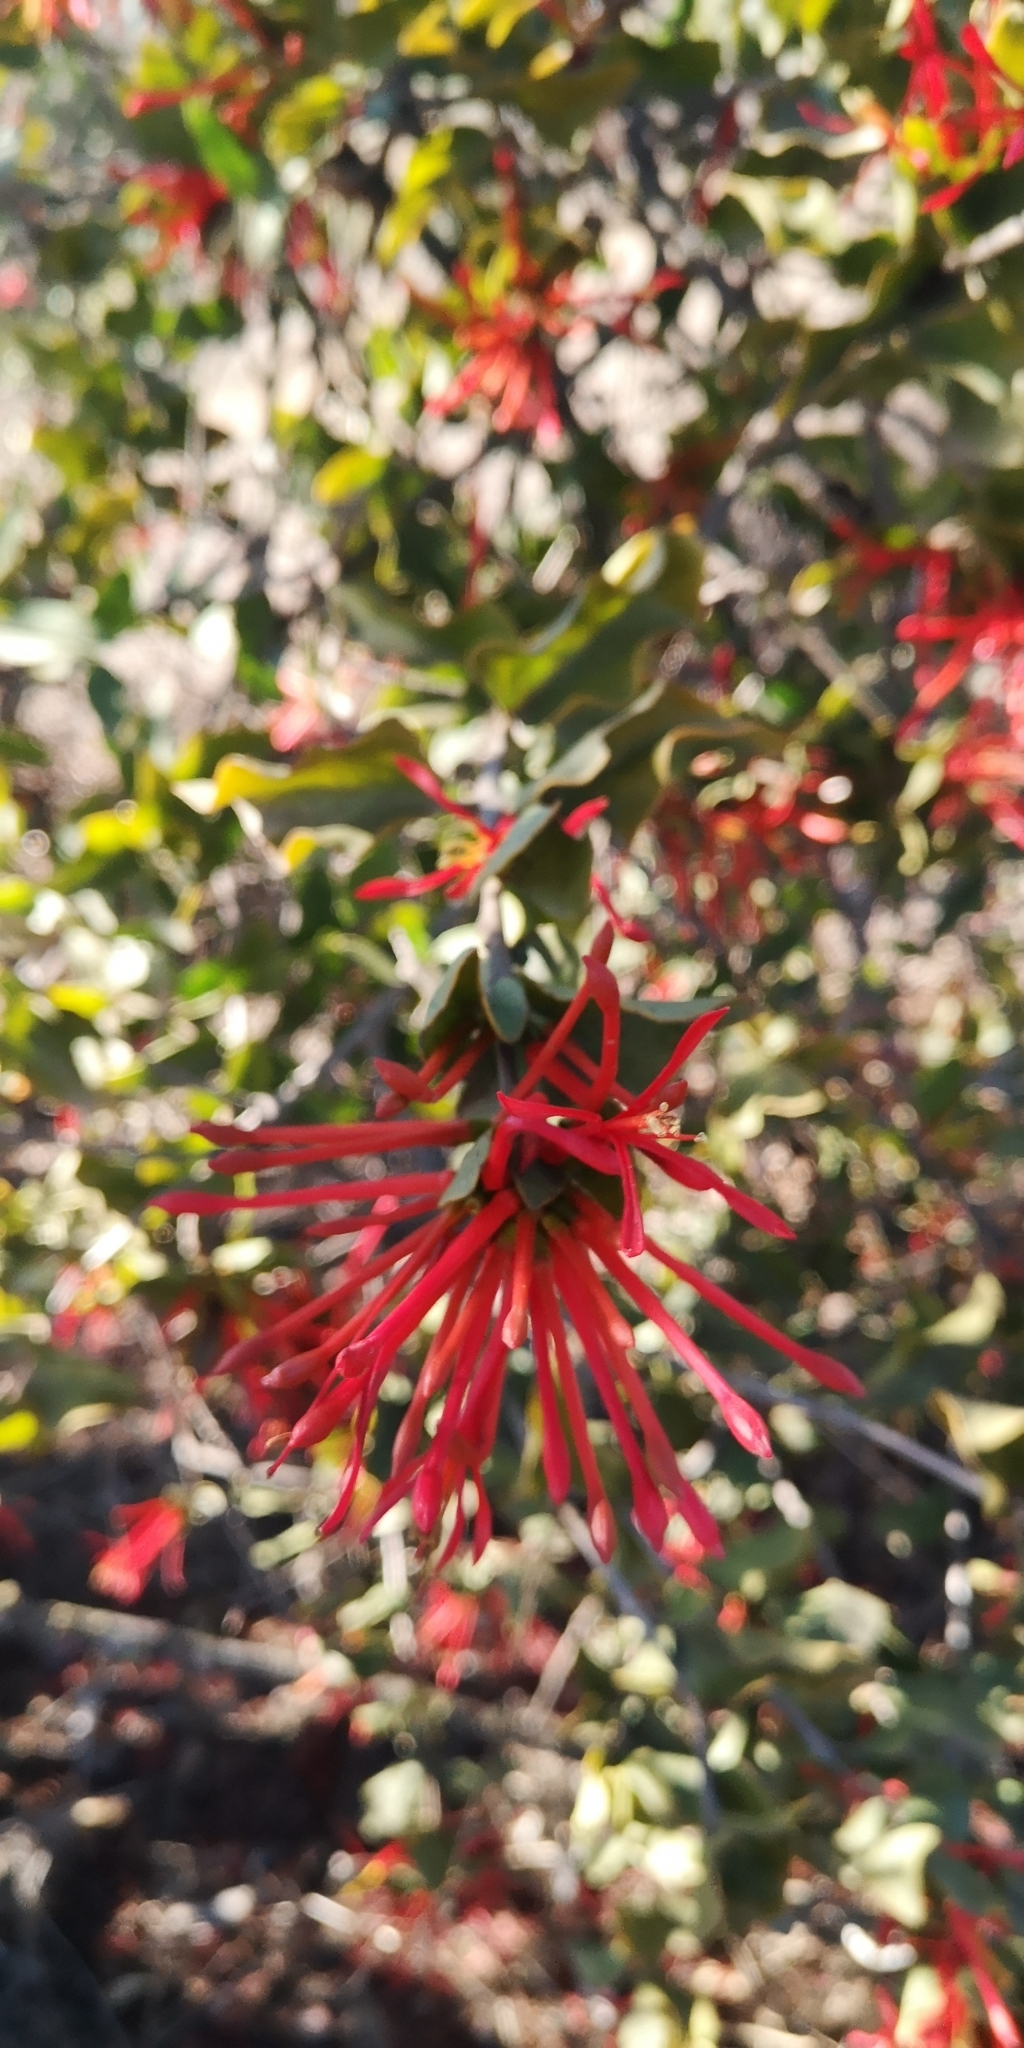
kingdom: Plantae
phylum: Tracheophyta
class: Magnoliopsida
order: Santalales
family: Loranthaceae
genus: Tristerix
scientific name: Tristerix corymbosus
